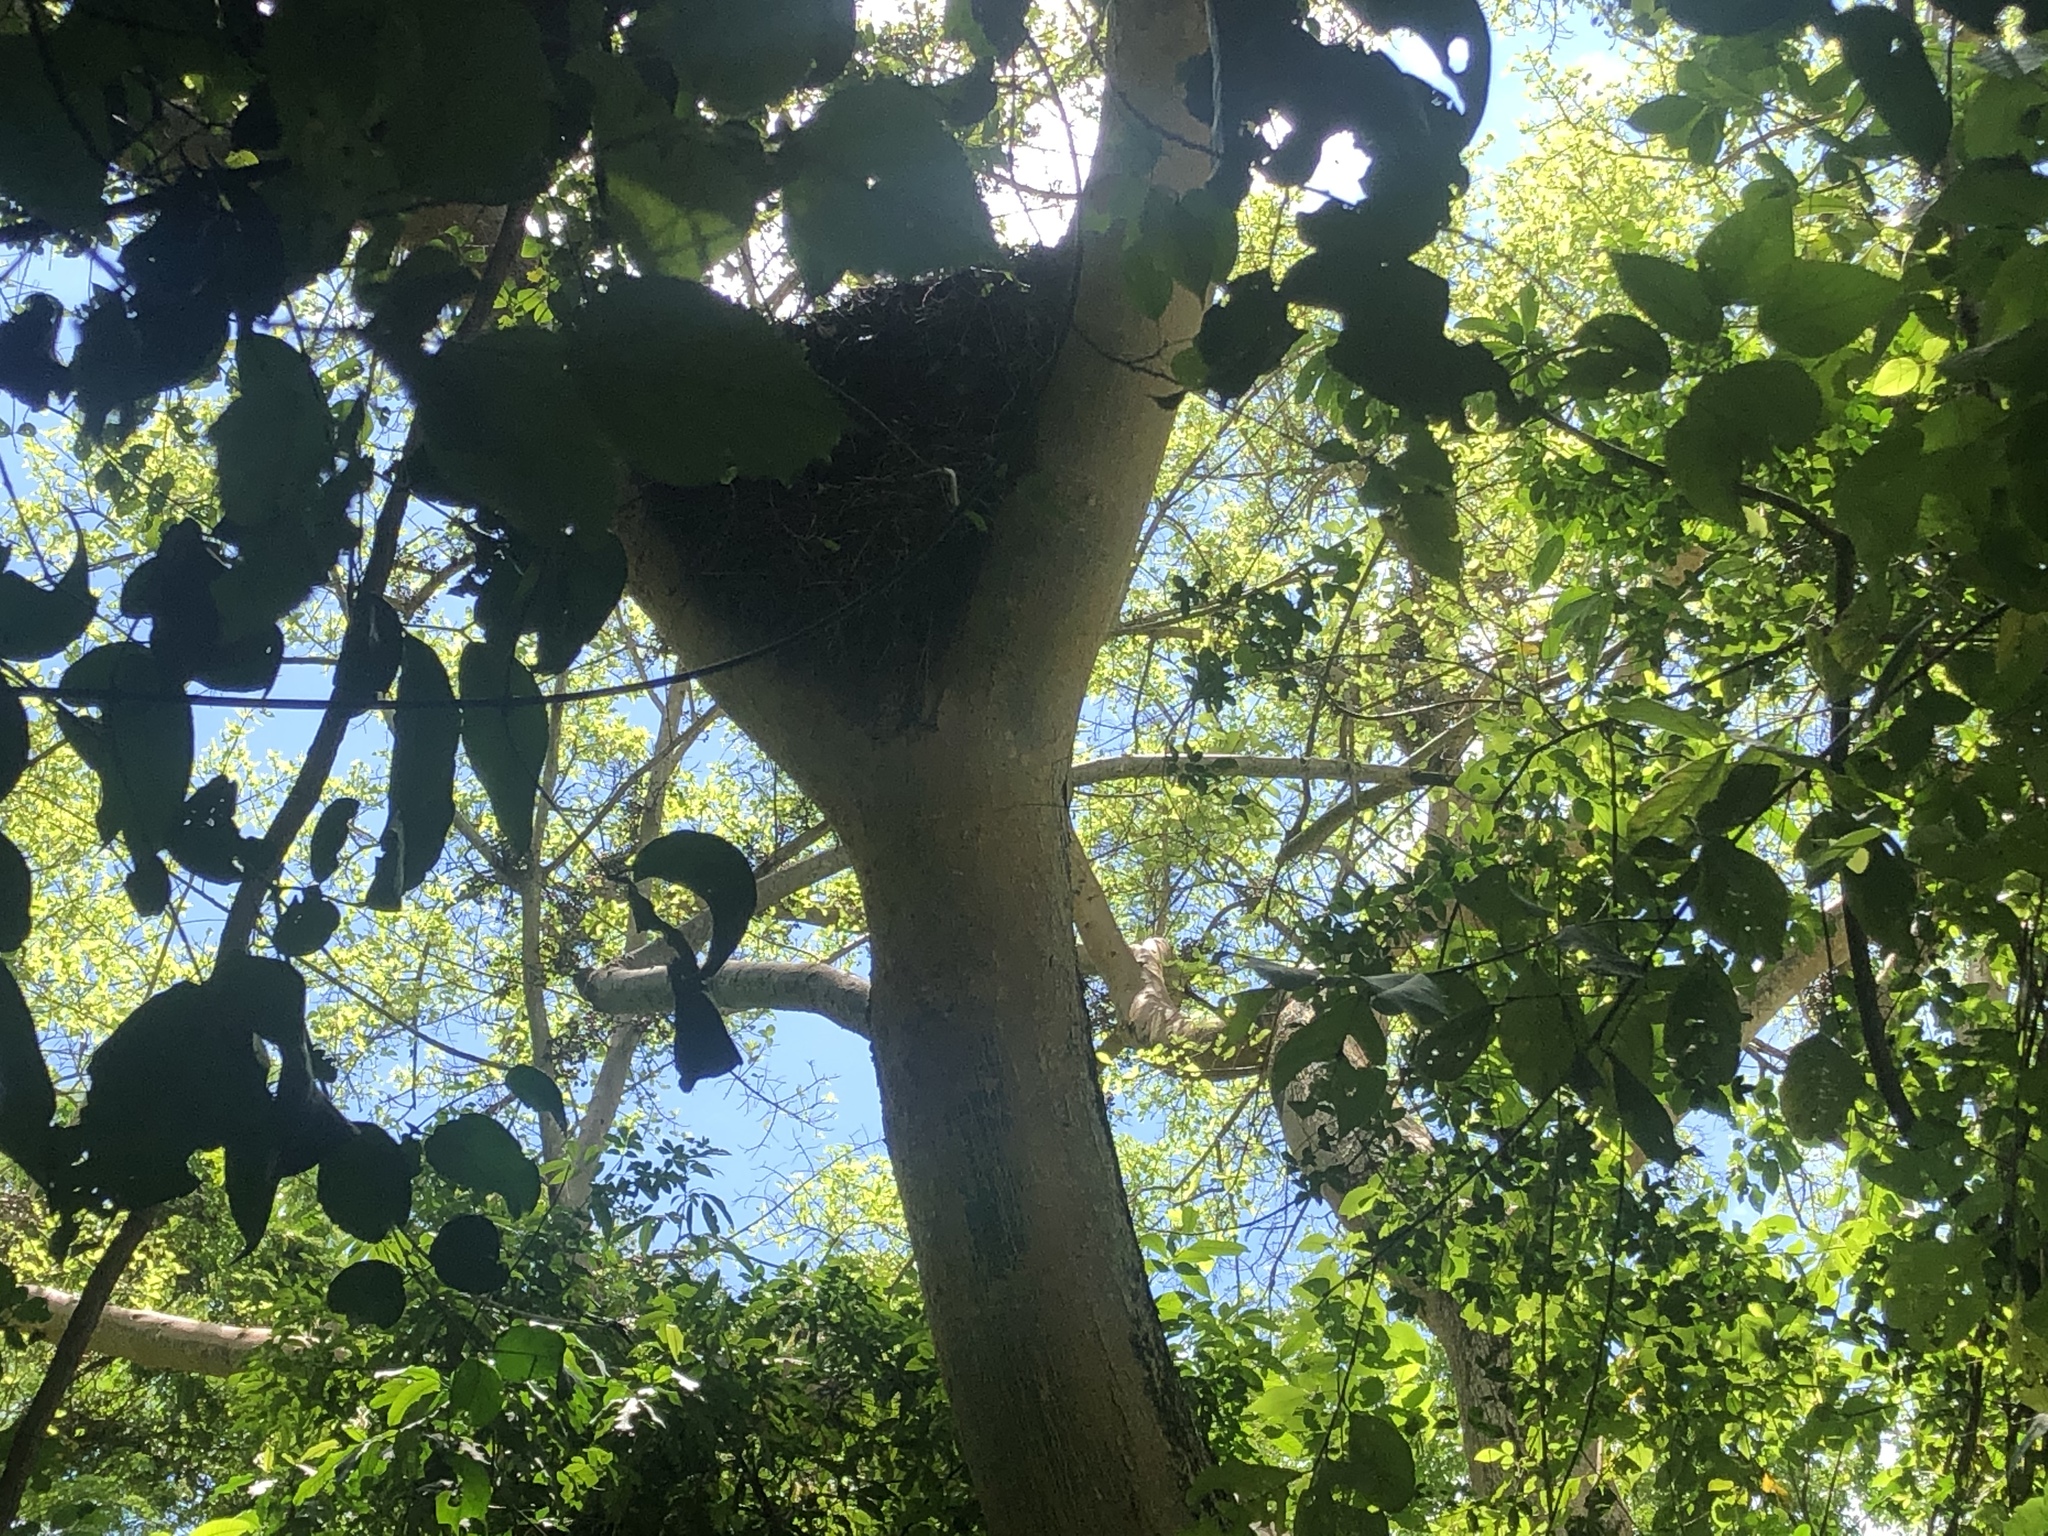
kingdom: Animalia
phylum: Chordata
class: Aves
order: Pelecaniformes
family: Scopidae
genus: Scopus
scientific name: Scopus umbretta
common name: Hamerkop
